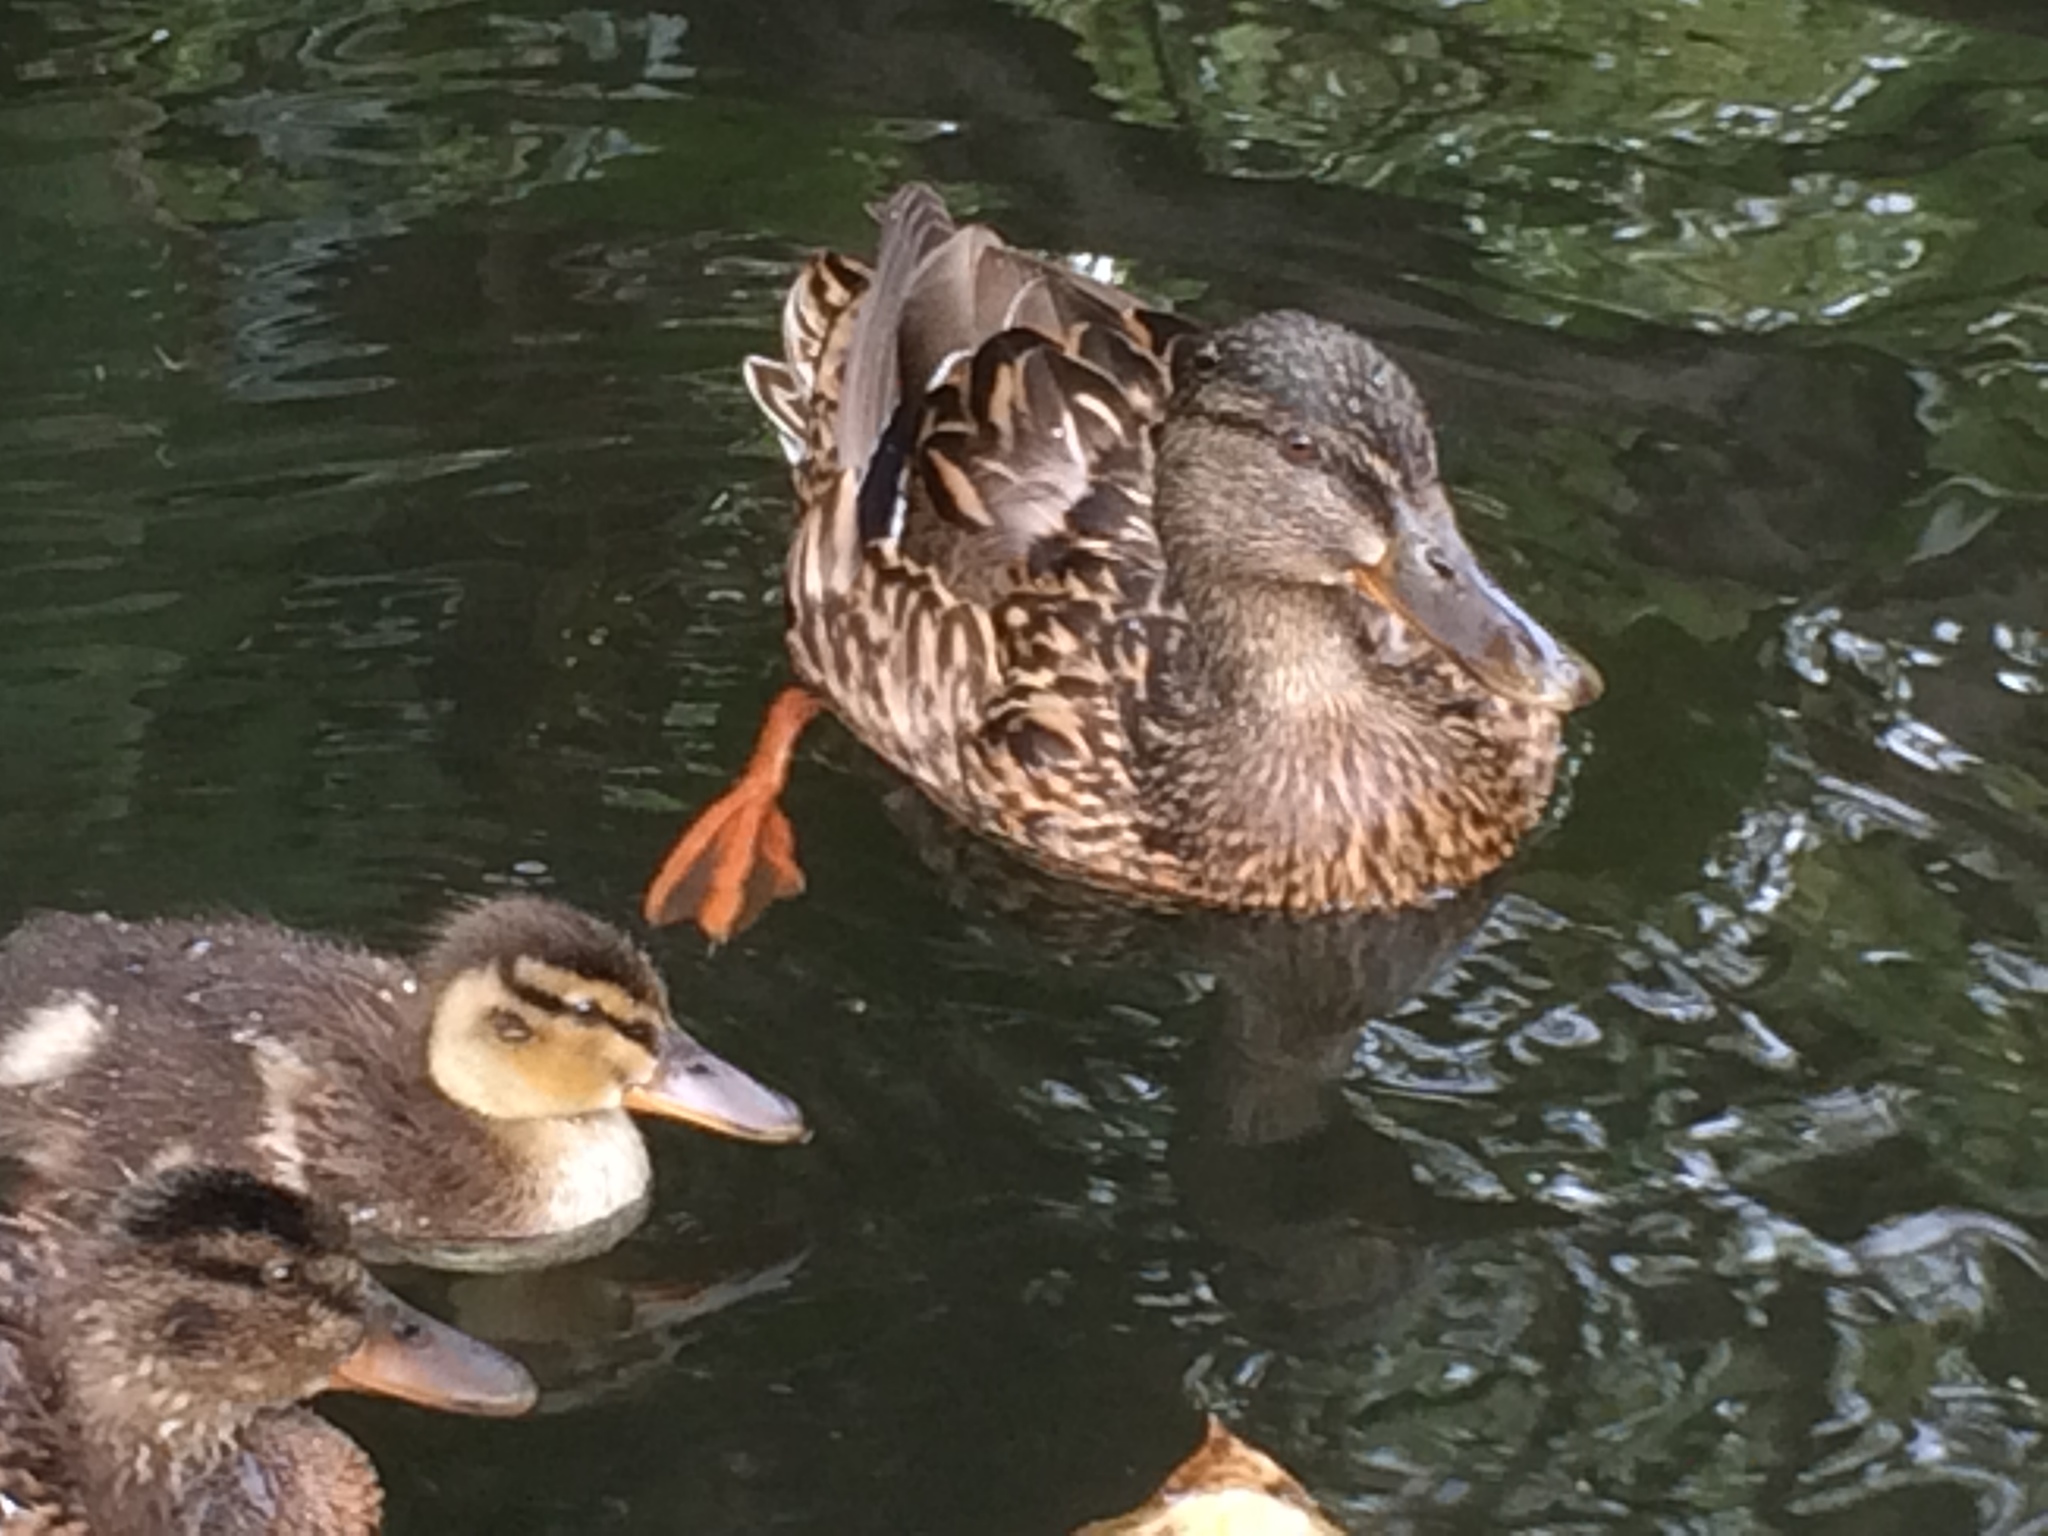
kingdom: Animalia
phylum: Chordata
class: Aves
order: Anseriformes
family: Anatidae
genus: Anas
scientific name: Anas platyrhynchos
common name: Mallard
